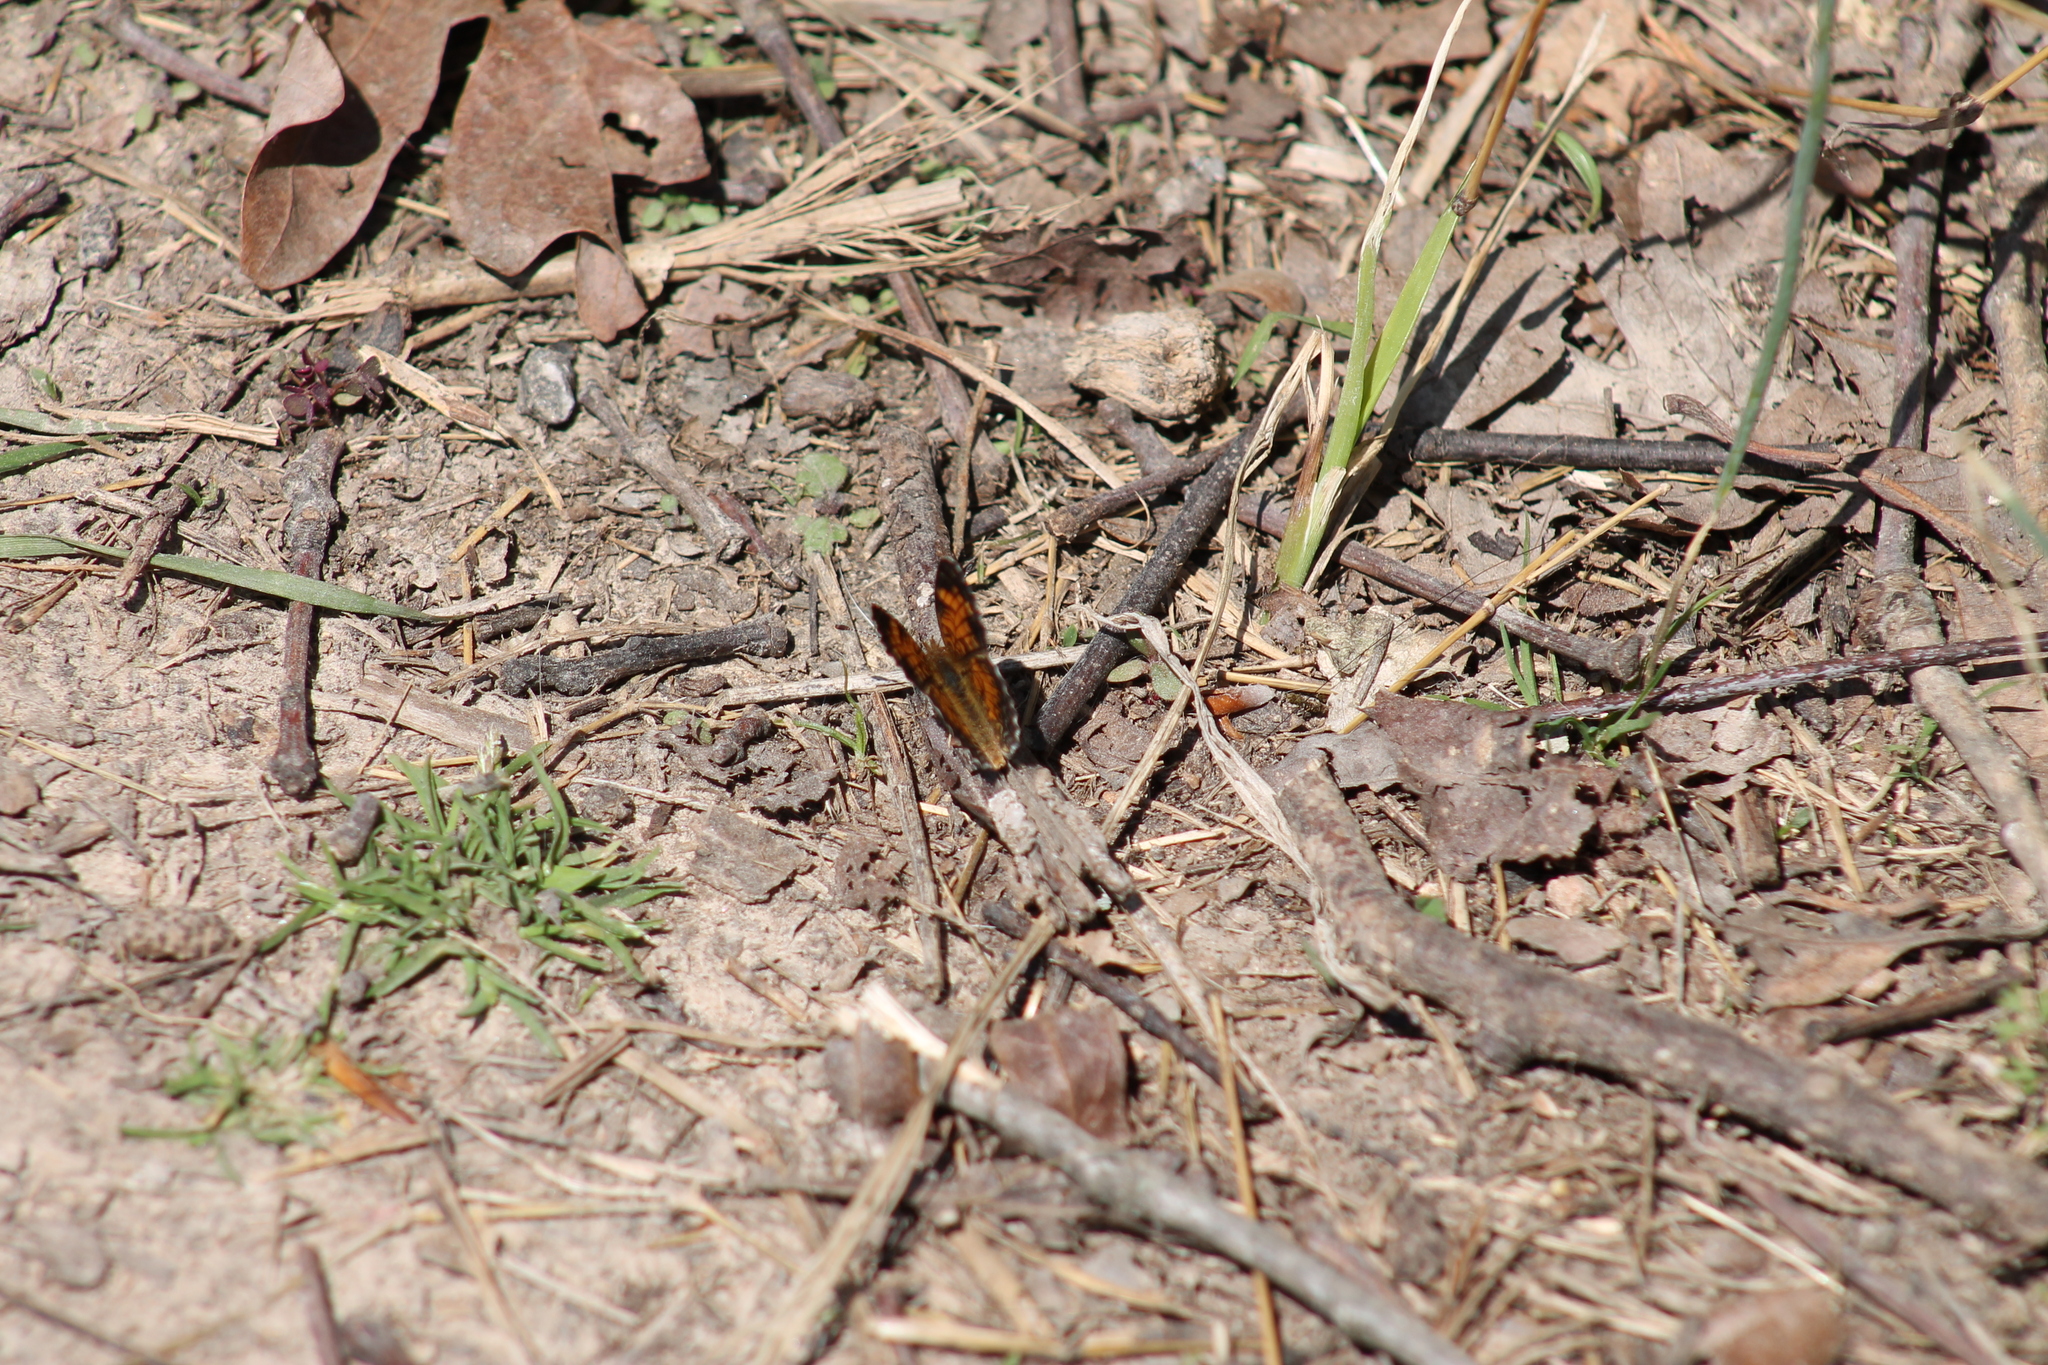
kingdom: Animalia
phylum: Arthropoda
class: Insecta
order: Lepidoptera
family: Nymphalidae
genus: Phyciodes
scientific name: Phyciodes tharos
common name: Pearl crescent
